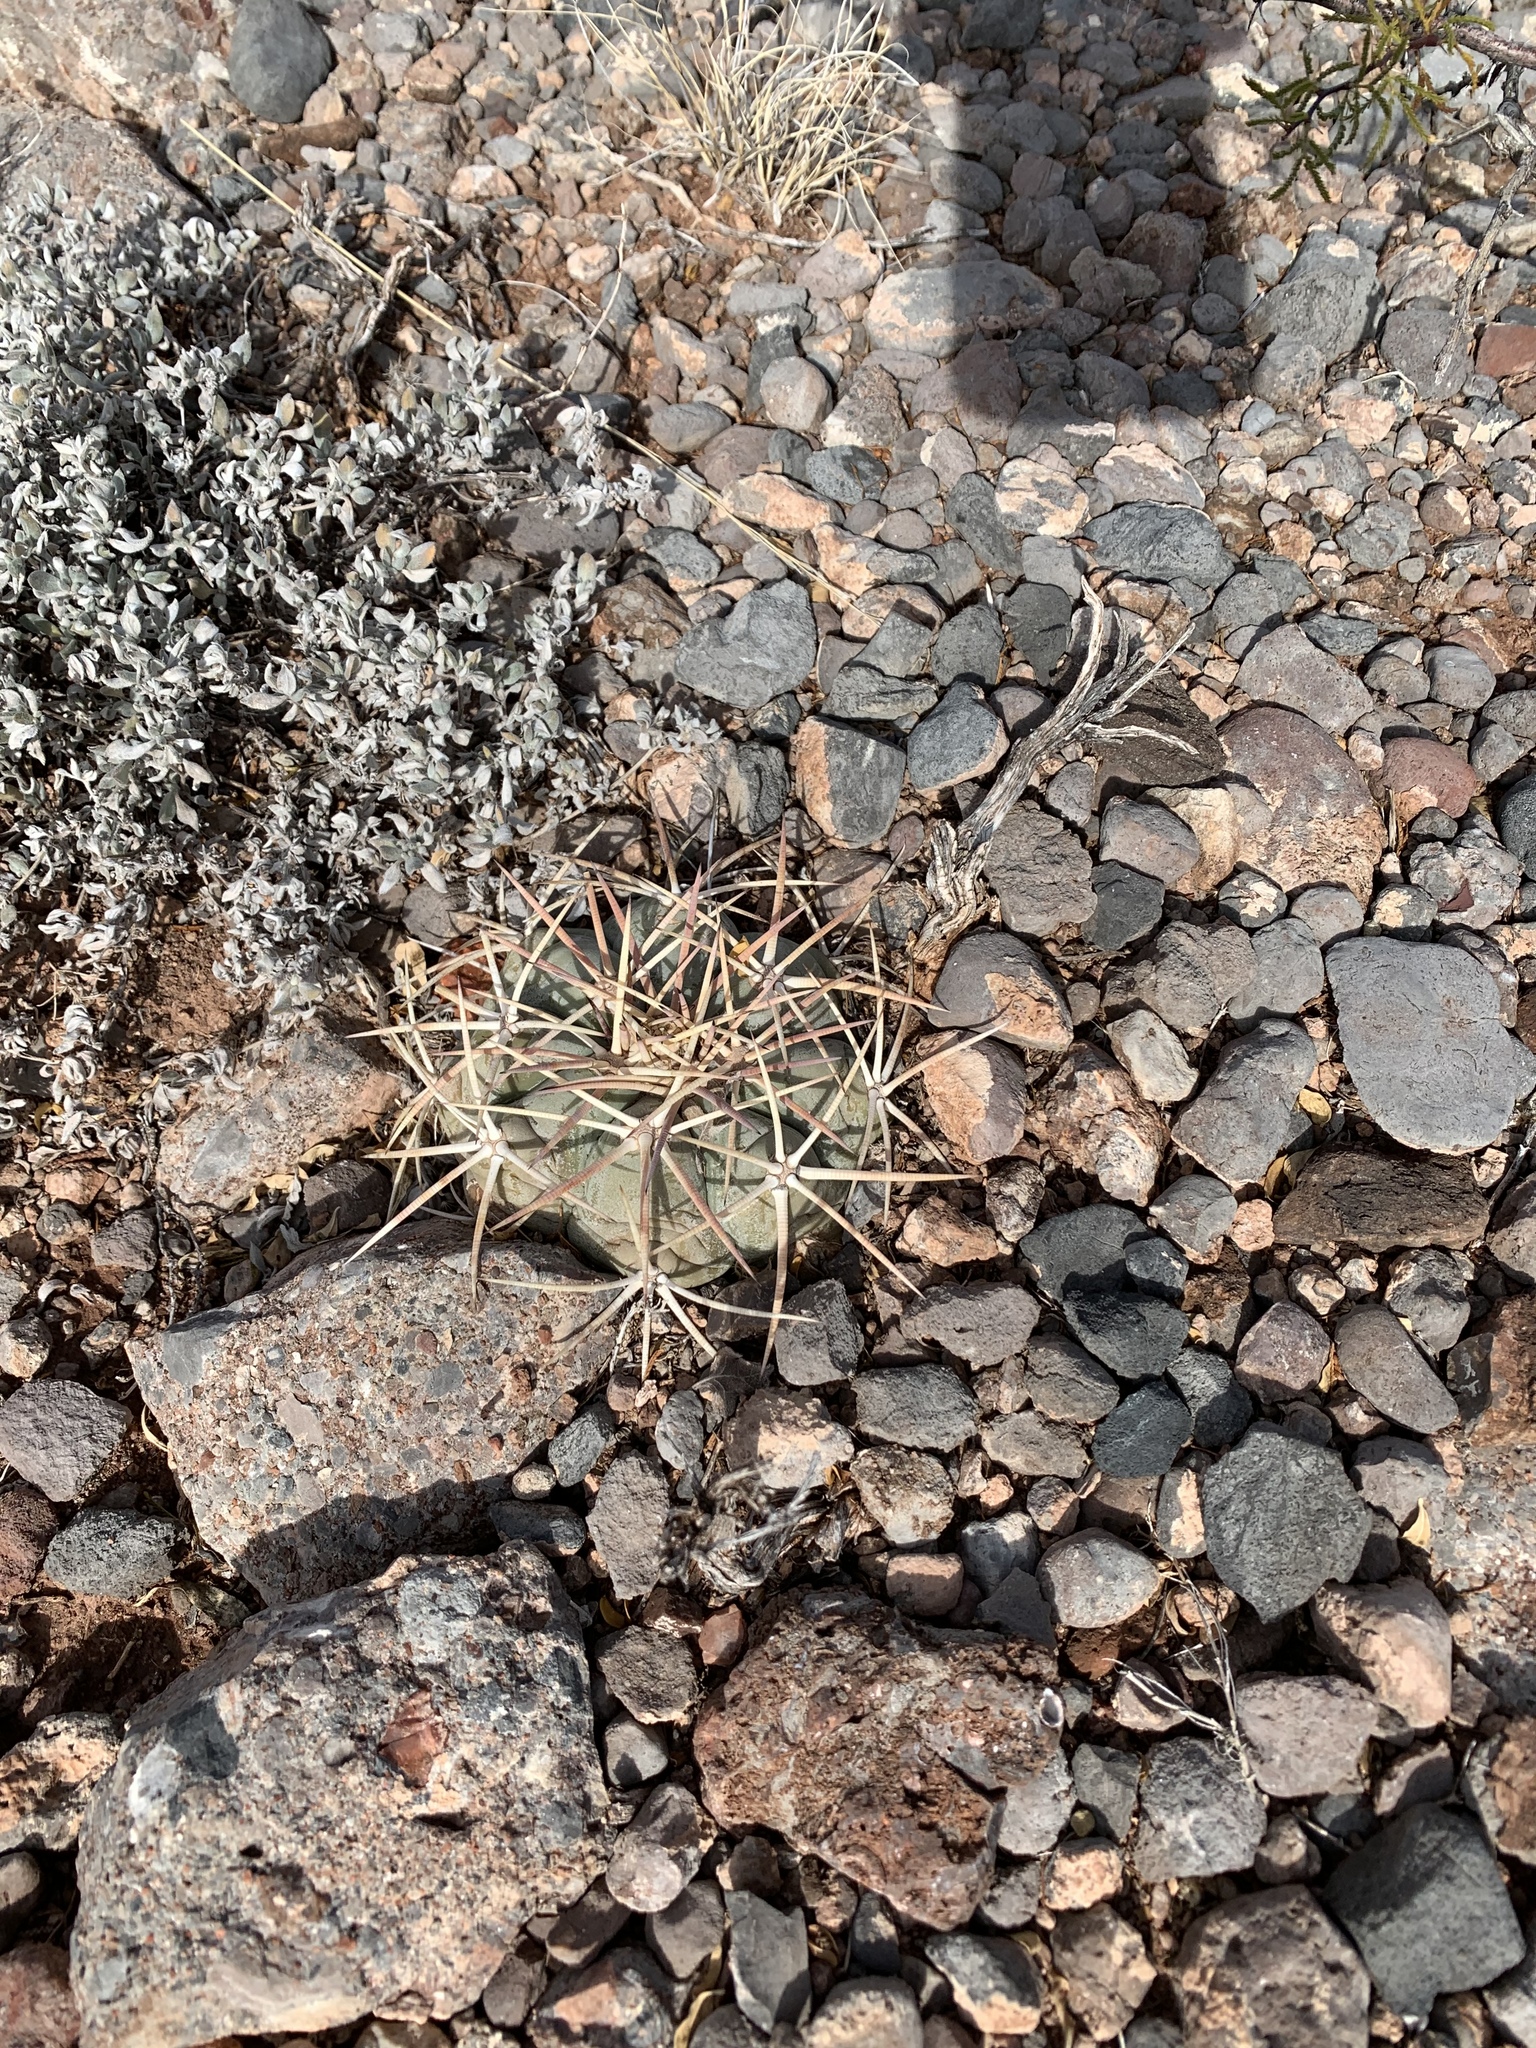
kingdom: Plantae
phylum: Tracheophyta
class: Magnoliopsida
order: Caryophyllales
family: Cactaceae
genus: Echinocactus
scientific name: Echinocactus horizonthalonius
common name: Devilshead
